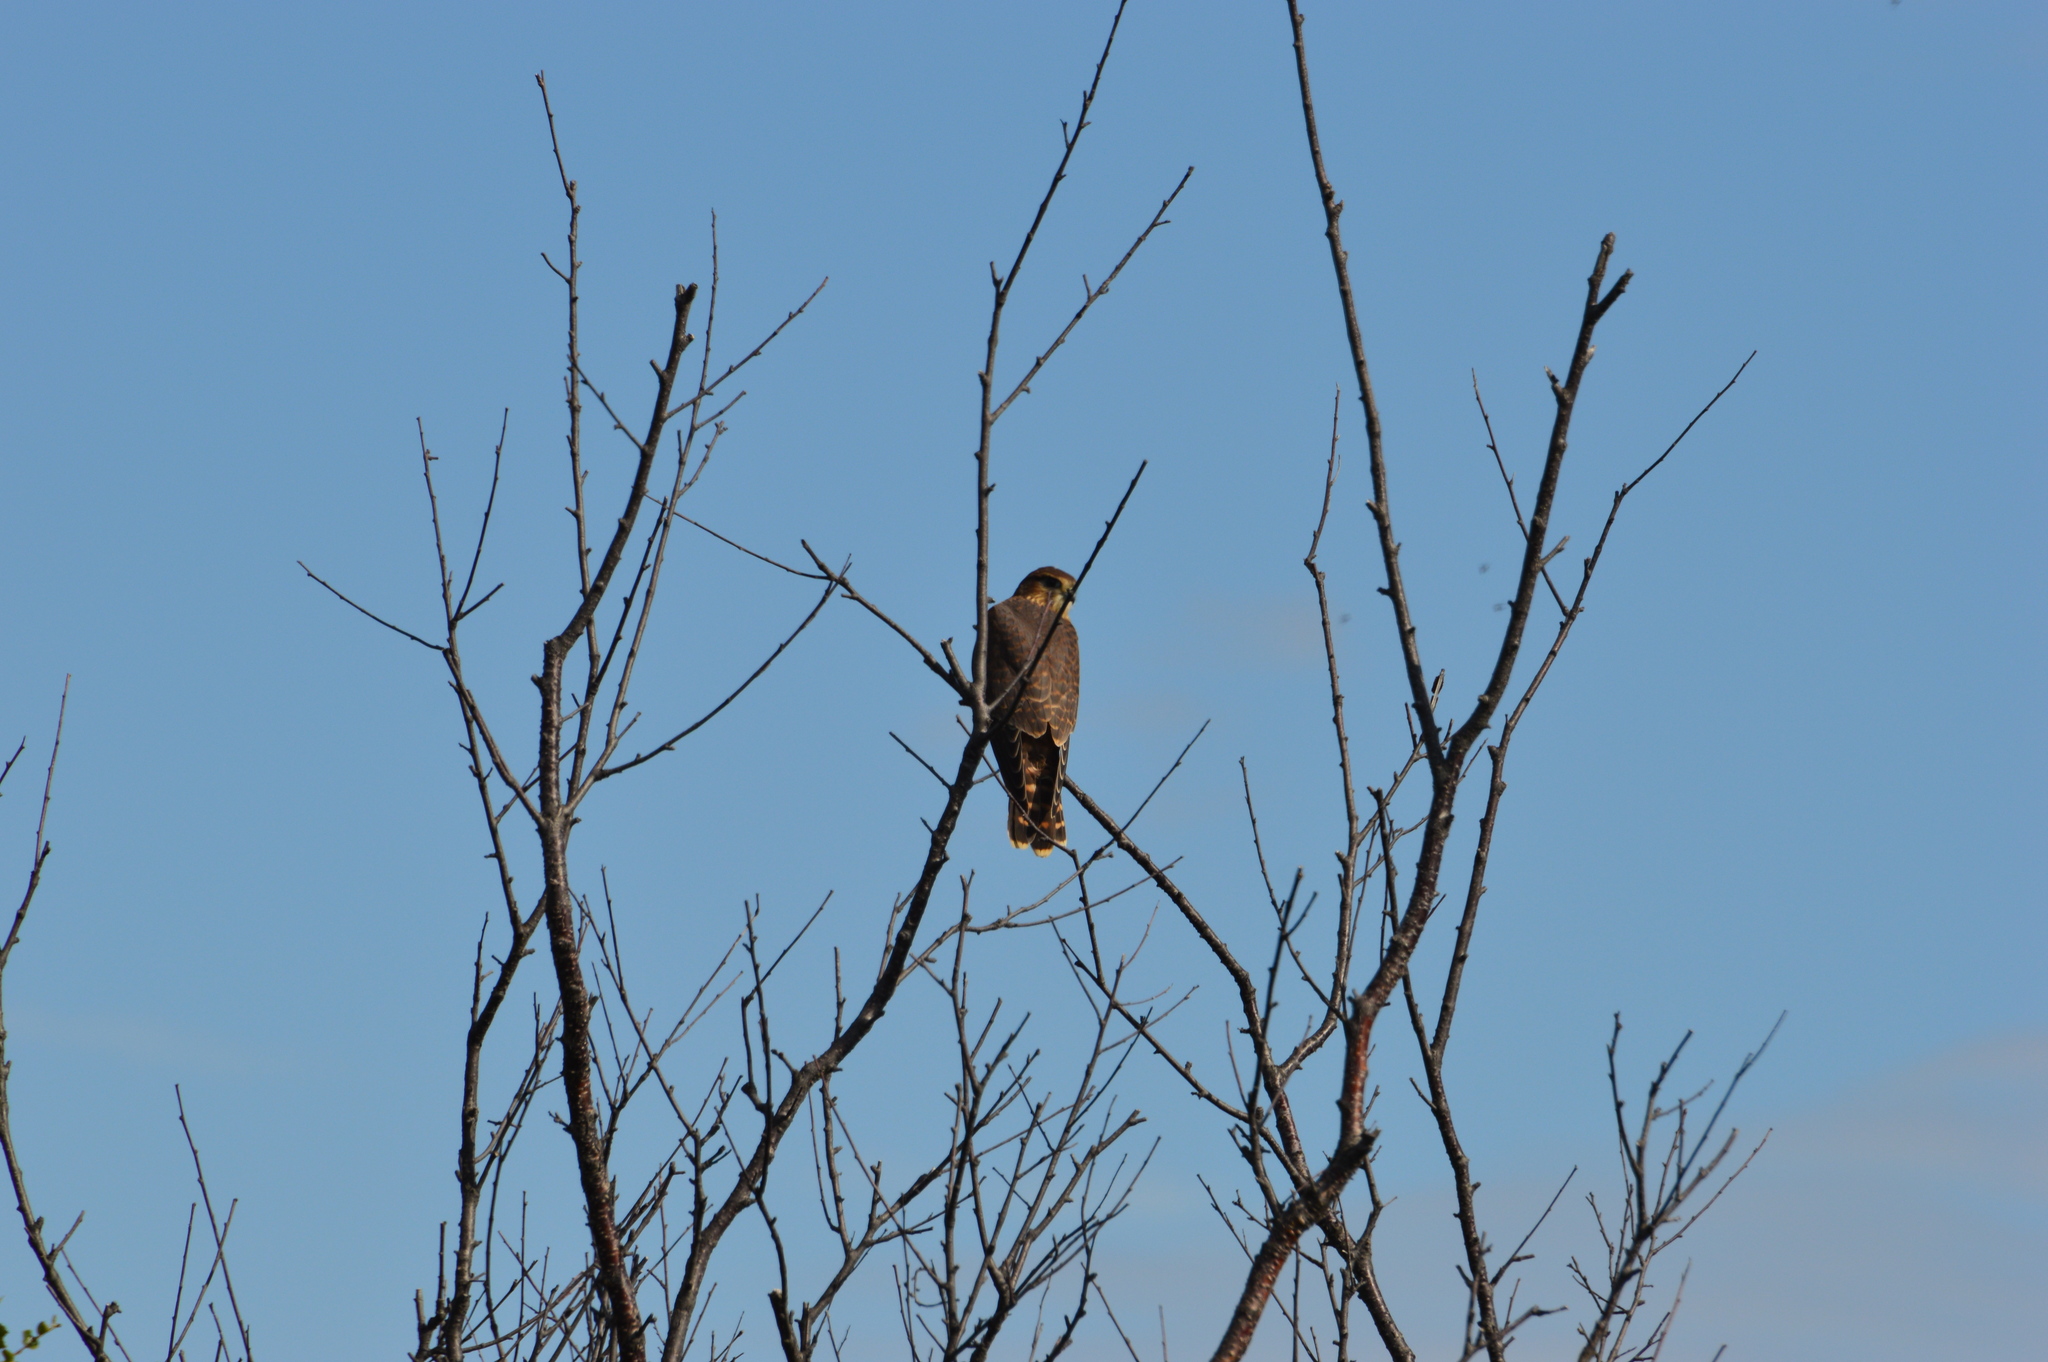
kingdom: Animalia
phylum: Chordata
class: Aves
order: Falconiformes
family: Falconidae
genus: Falco
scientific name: Falco columbarius
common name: Merlin
